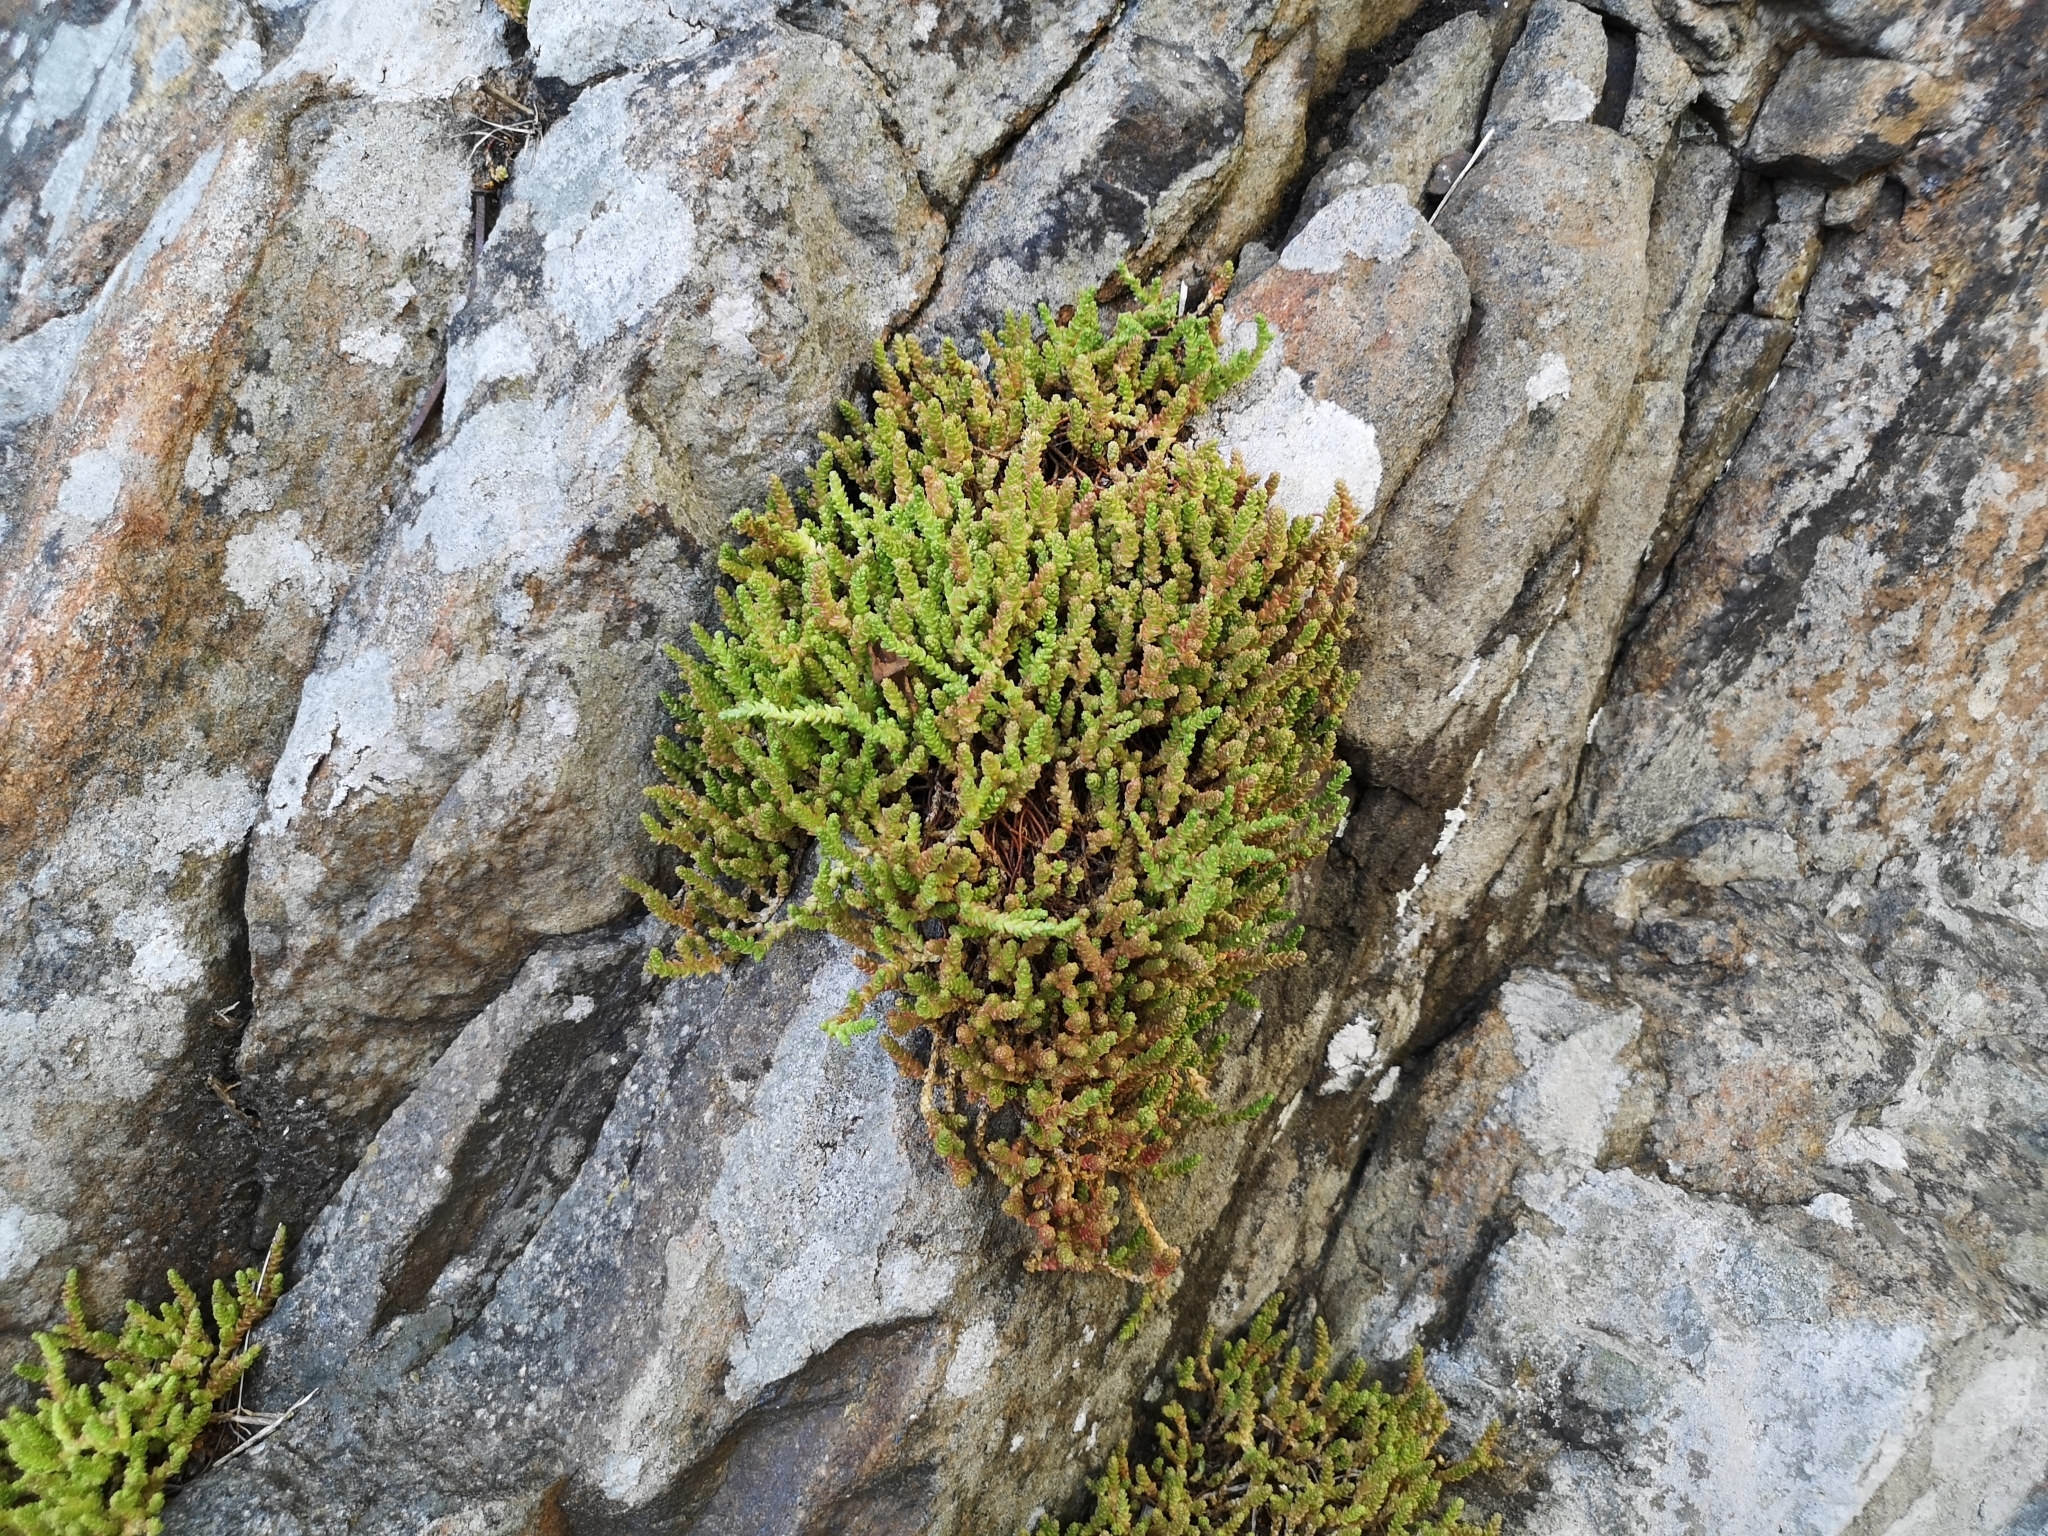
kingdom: Plantae
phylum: Tracheophyta
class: Magnoliopsida
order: Saxifragales
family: Crassulaceae
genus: Sedum
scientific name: Sedum acre
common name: Biting stonecrop
